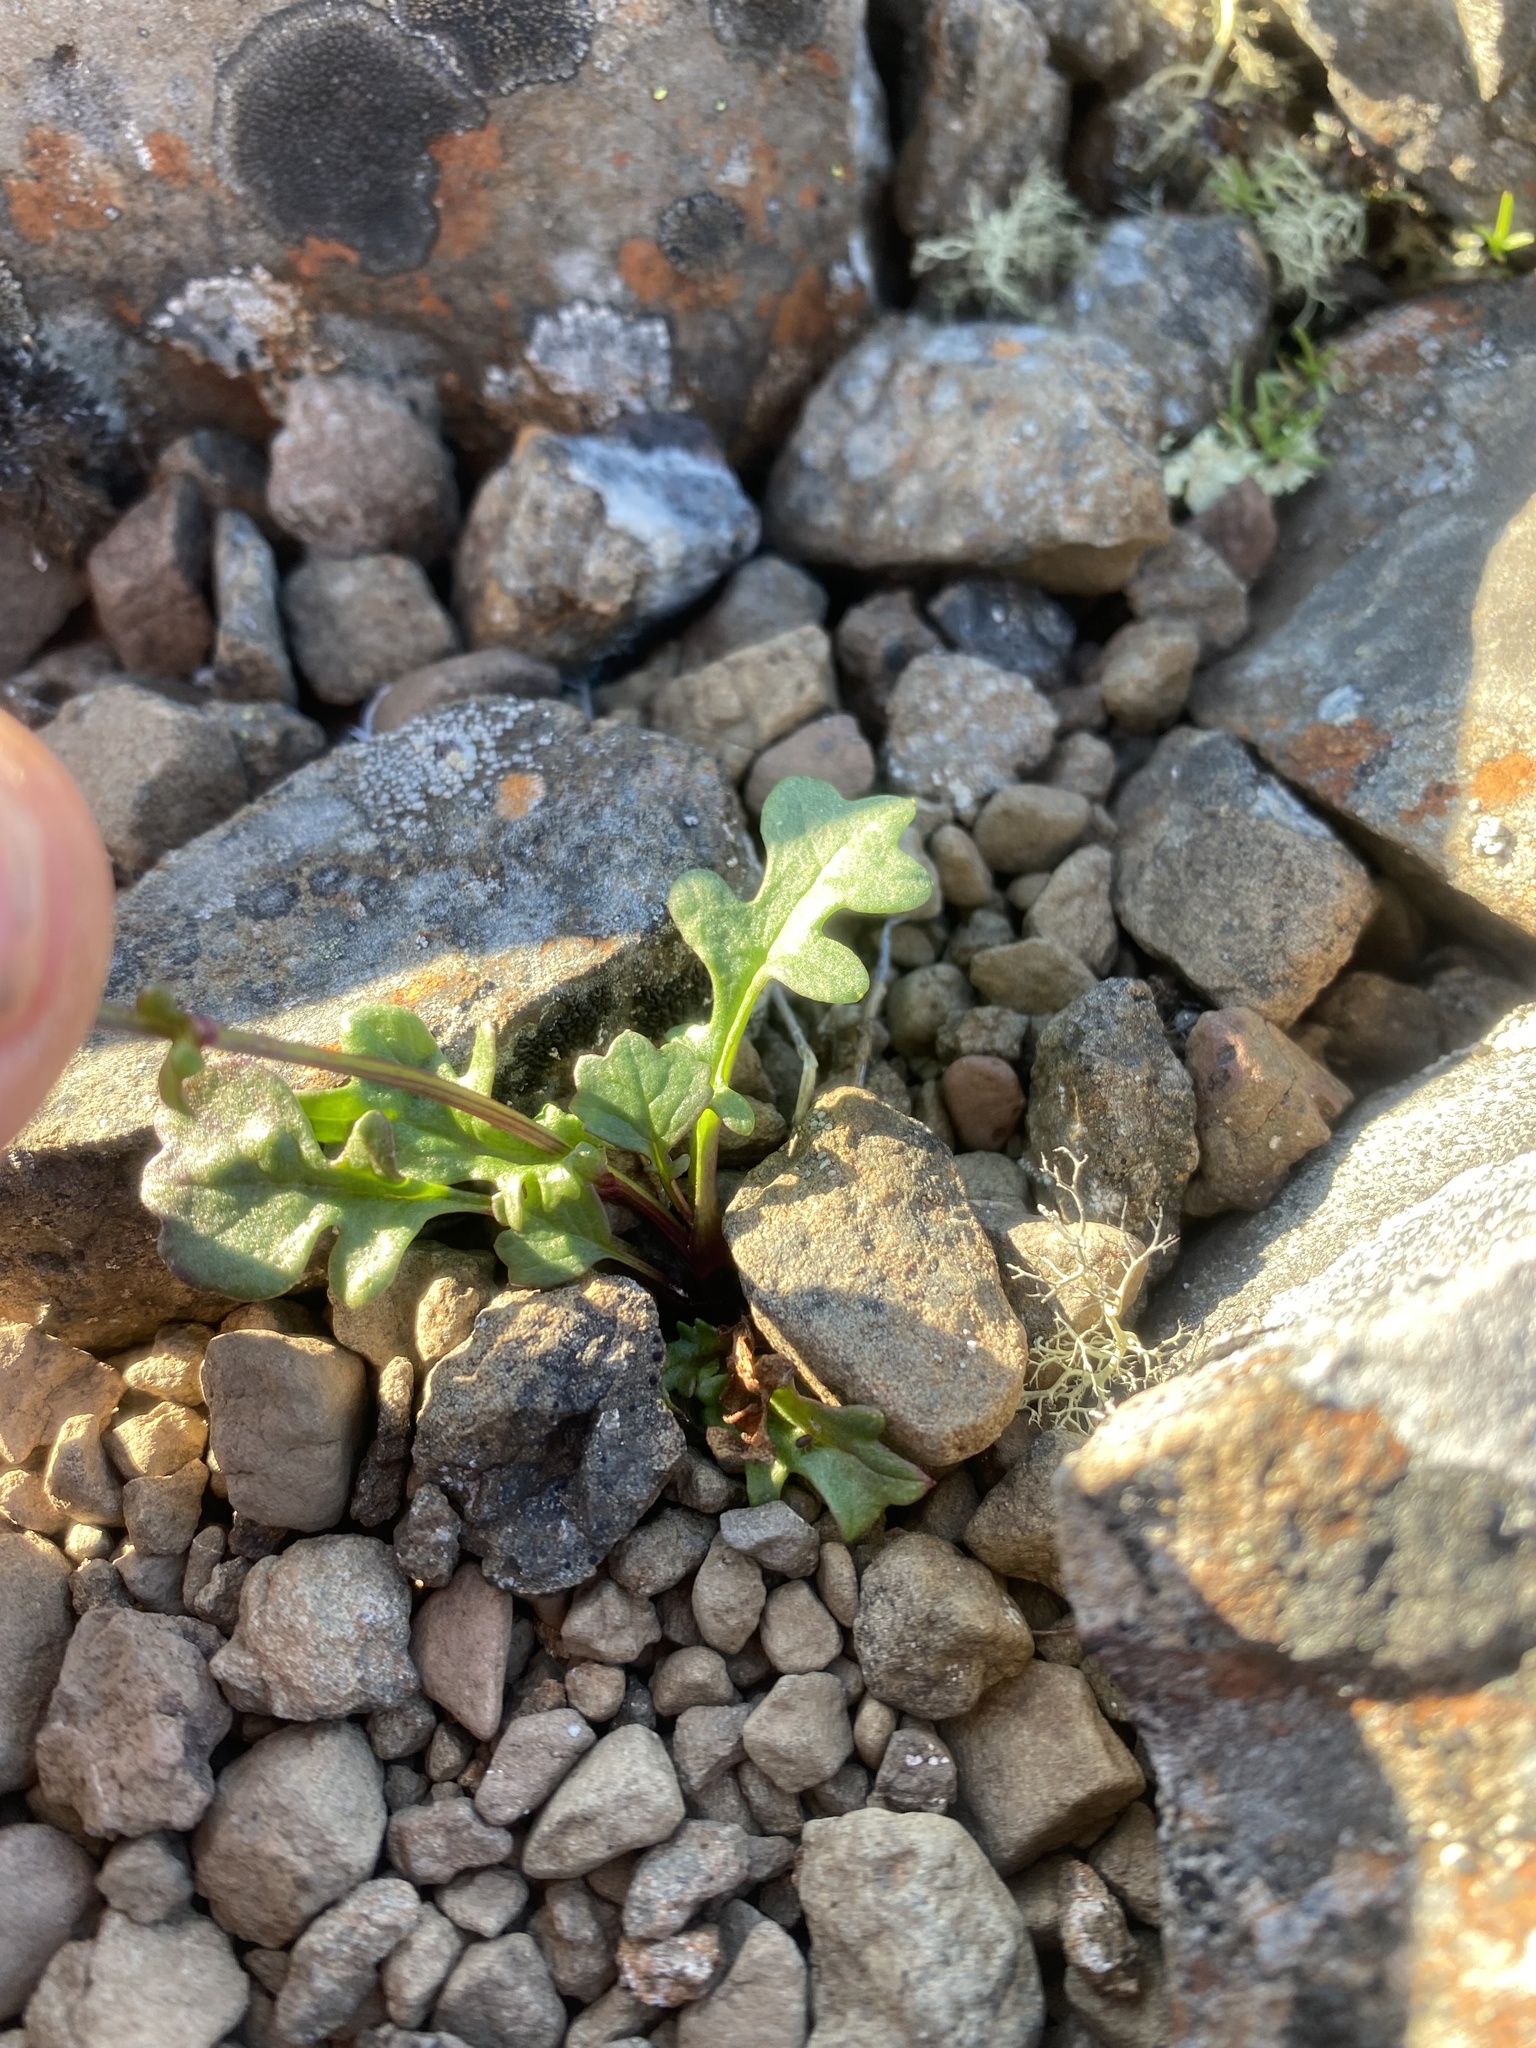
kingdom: Plantae
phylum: Tracheophyta
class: Magnoliopsida
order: Asterales
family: Asteraceae
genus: Packera
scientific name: Packera heterophylla
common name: Arctic butterweed
